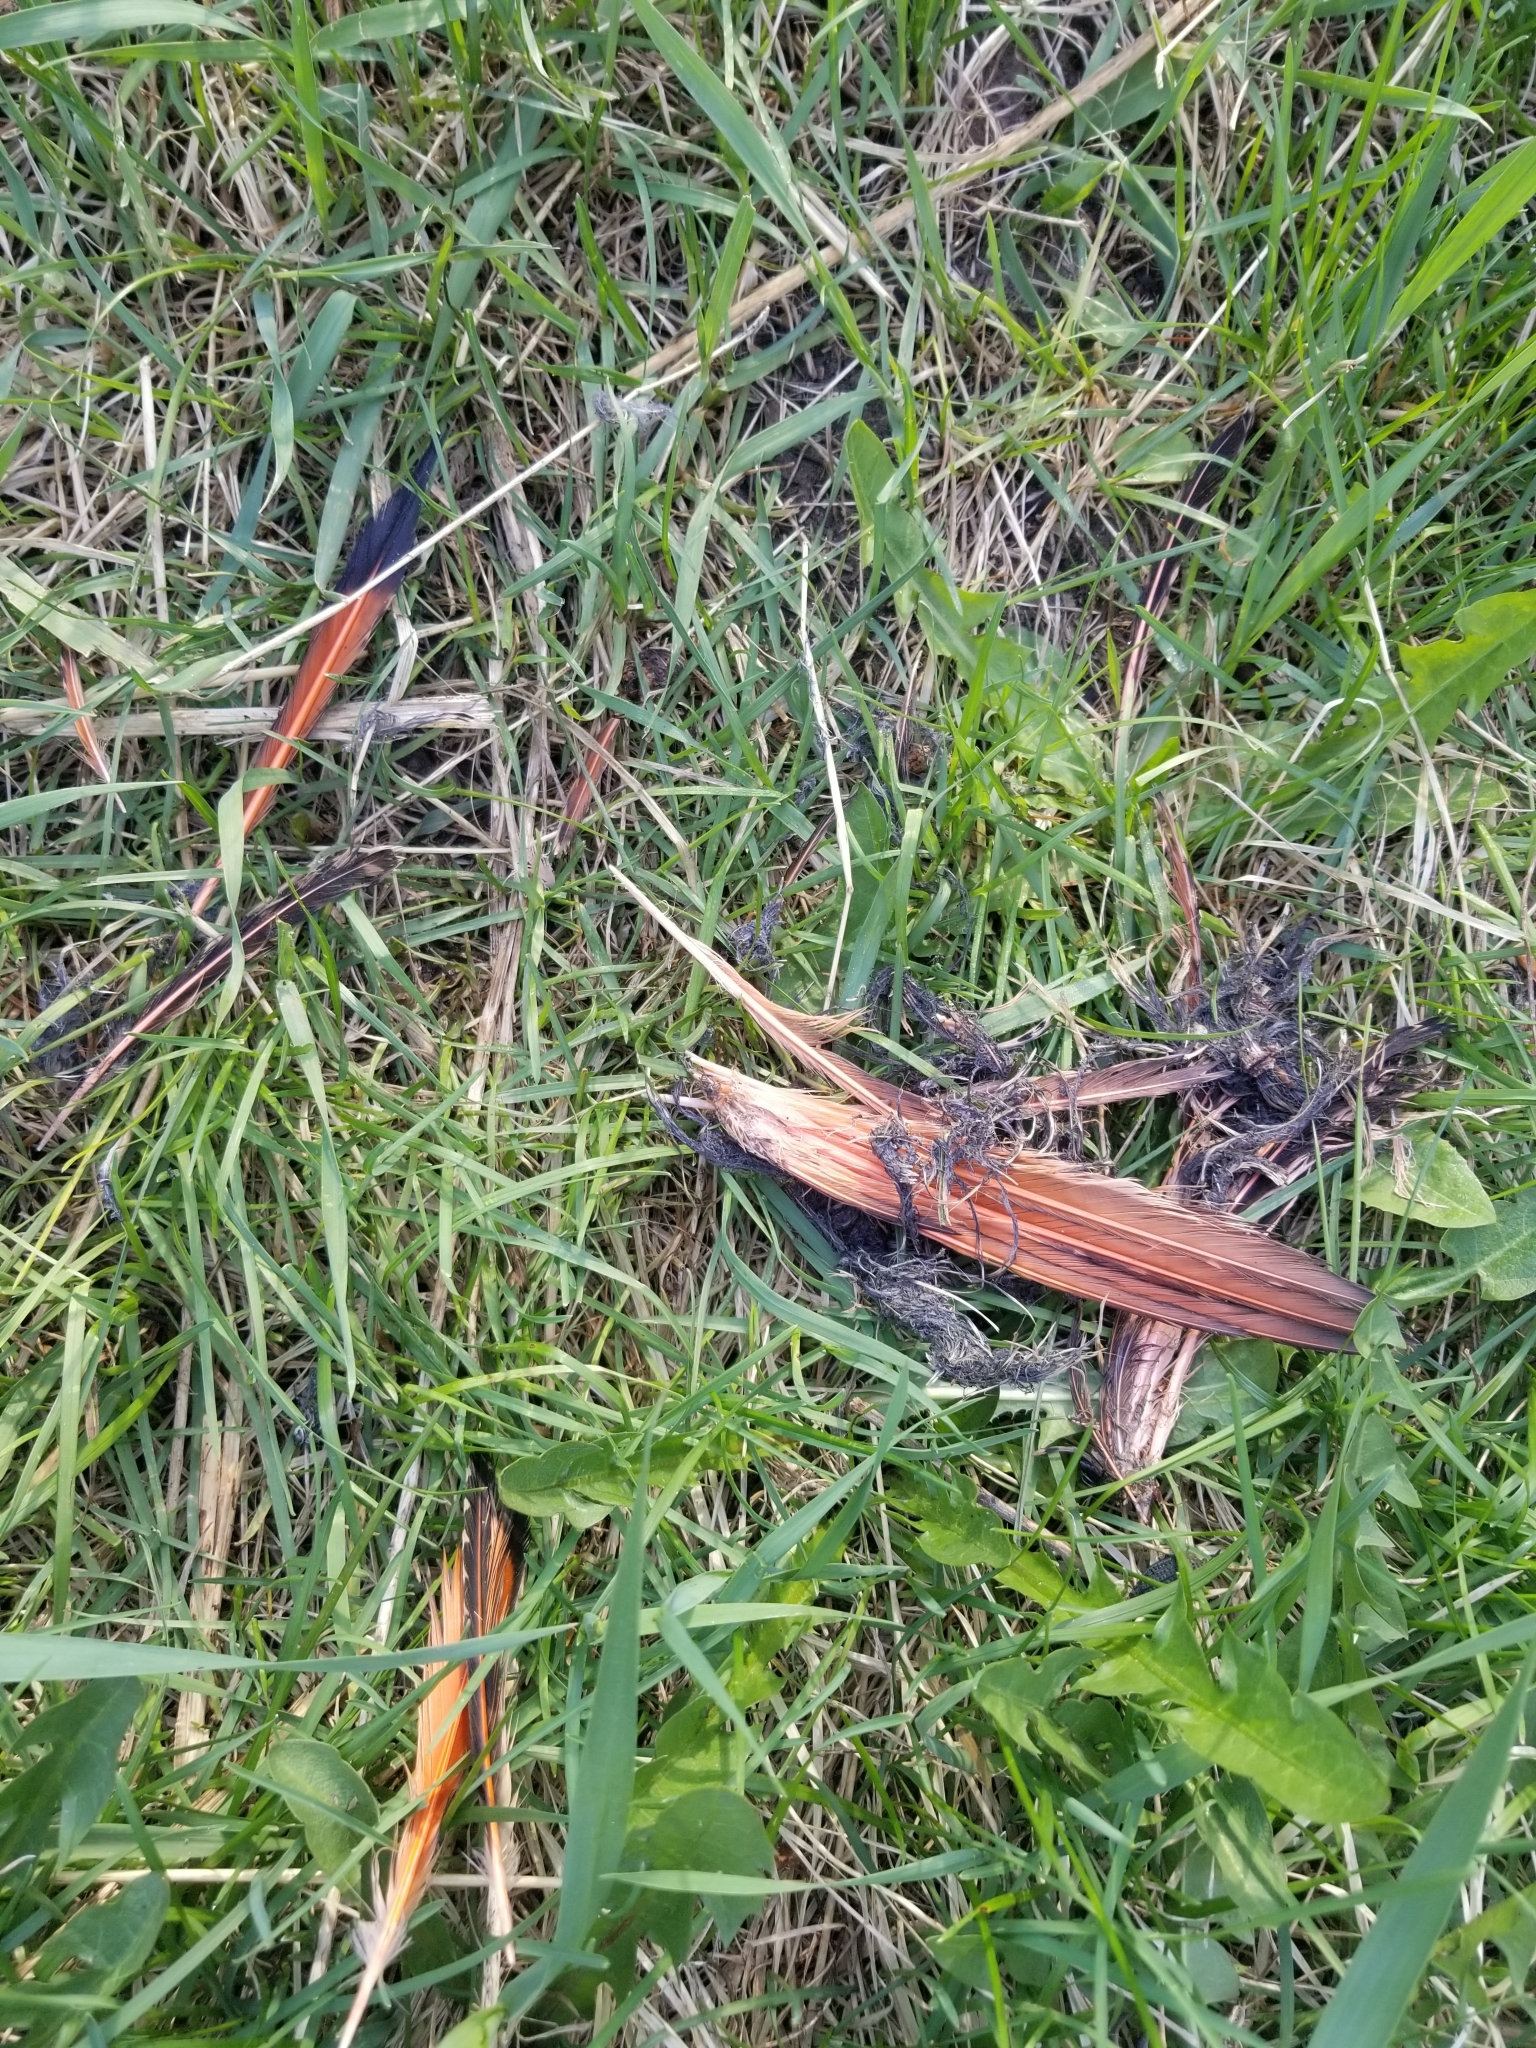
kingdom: Animalia
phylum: Chordata
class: Aves
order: Piciformes
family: Picidae
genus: Colaptes
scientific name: Colaptes auratus
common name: Northern flicker
